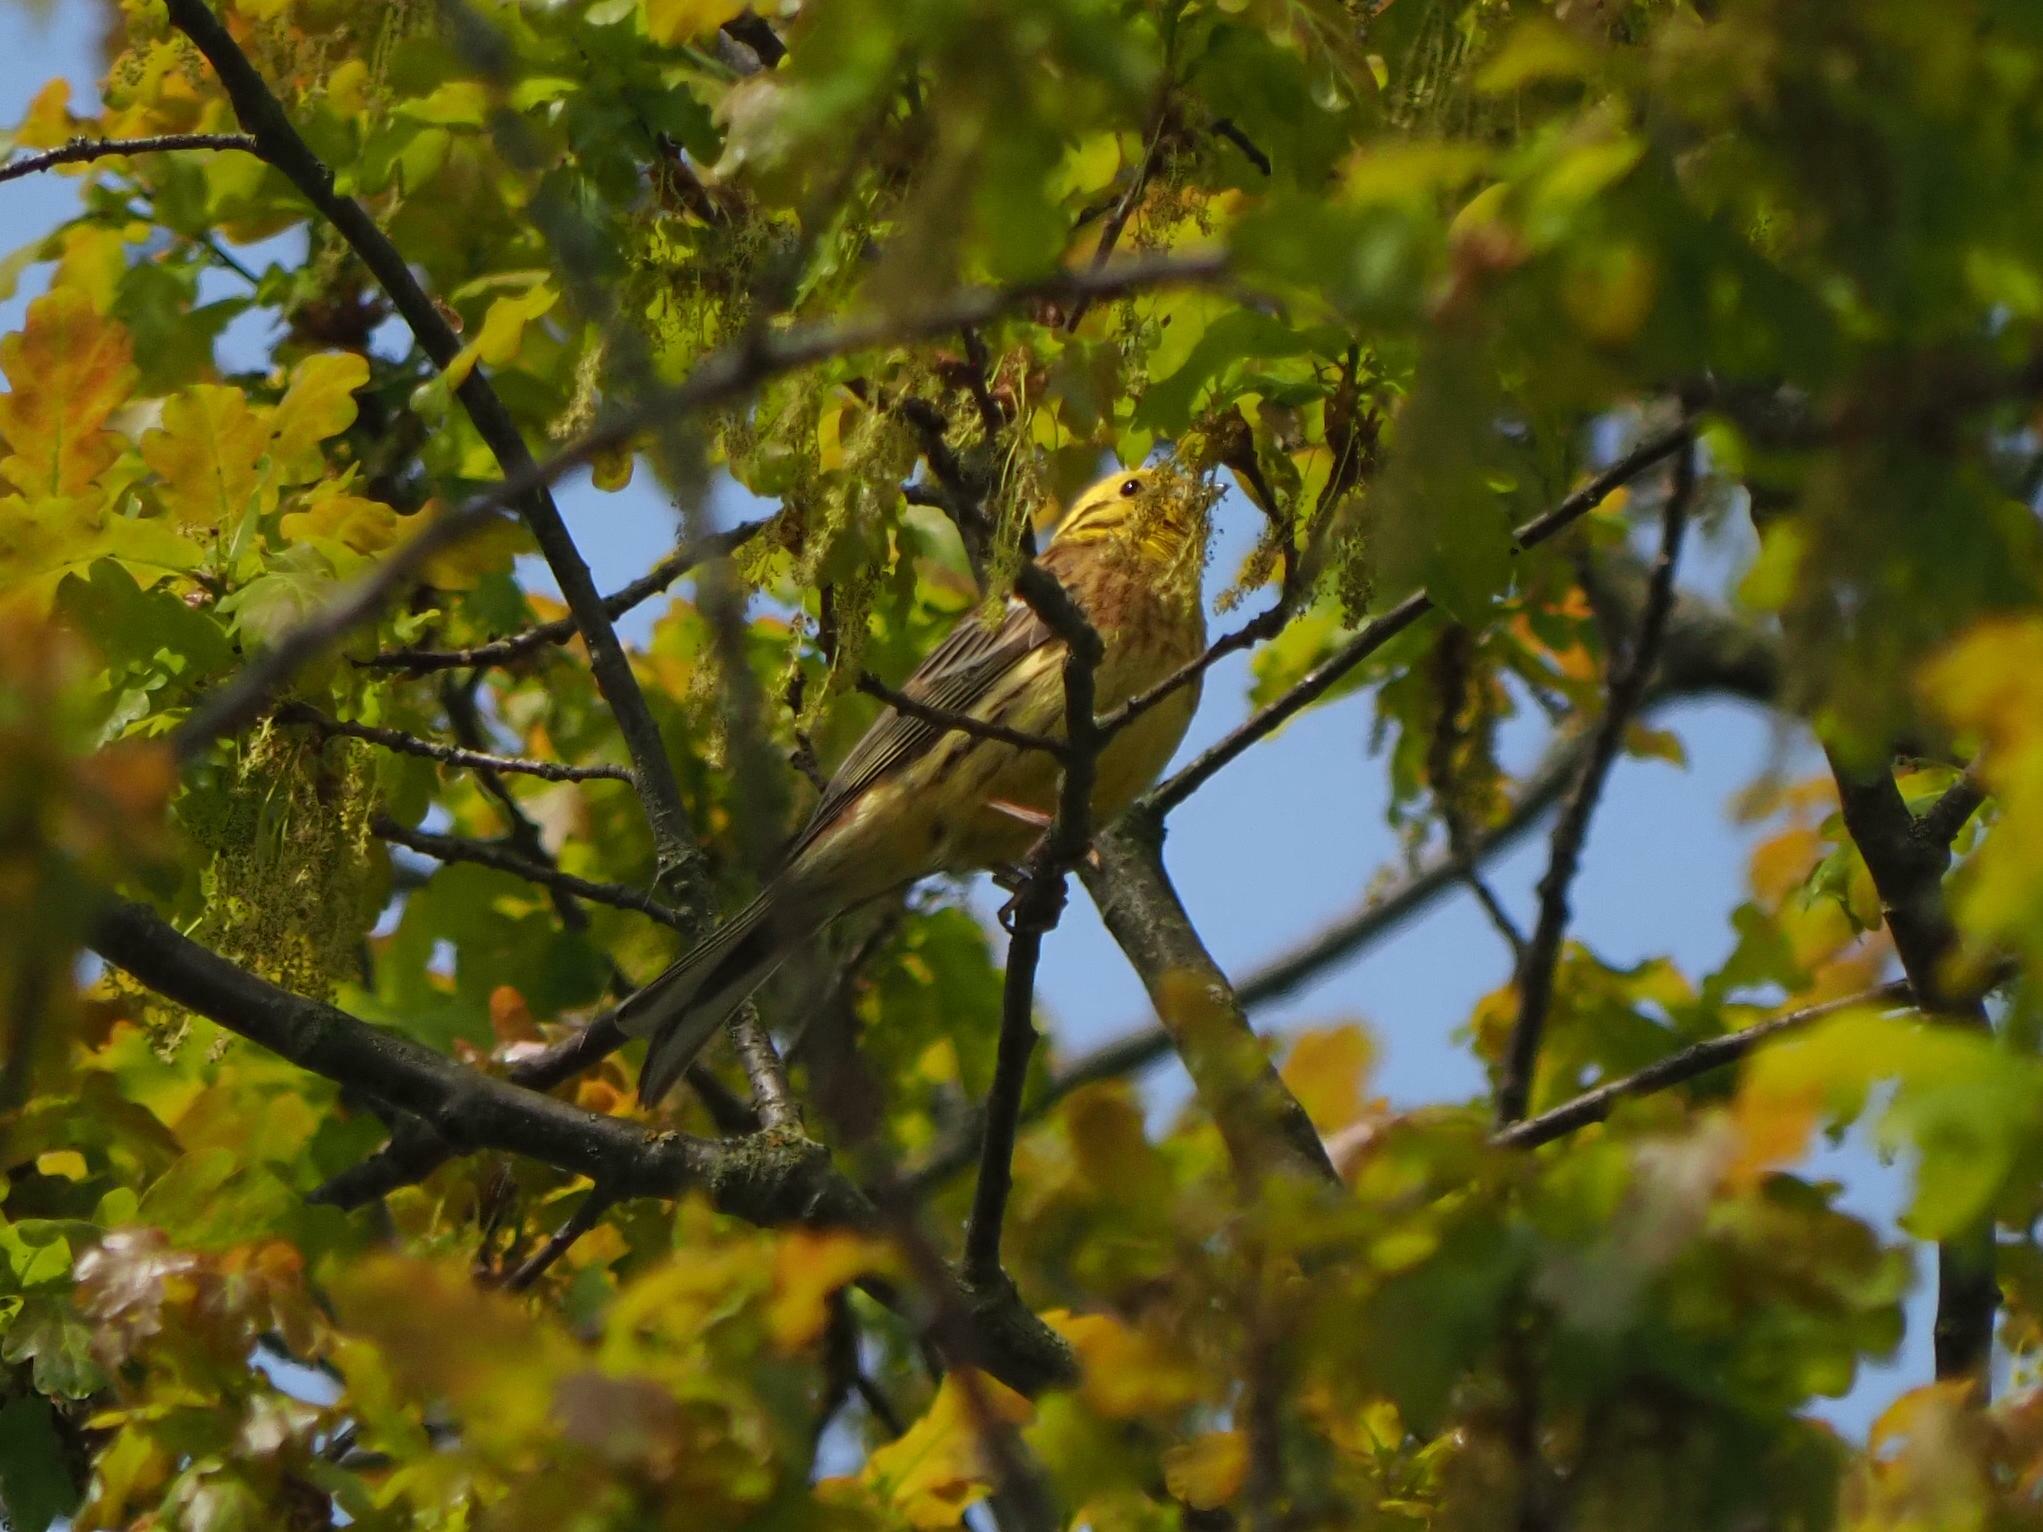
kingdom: Animalia
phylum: Chordata
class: Aves
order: Passeriformes
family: Emberizidae
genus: Emberiza
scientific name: Emberiza citrinella
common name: Yellowhammer
